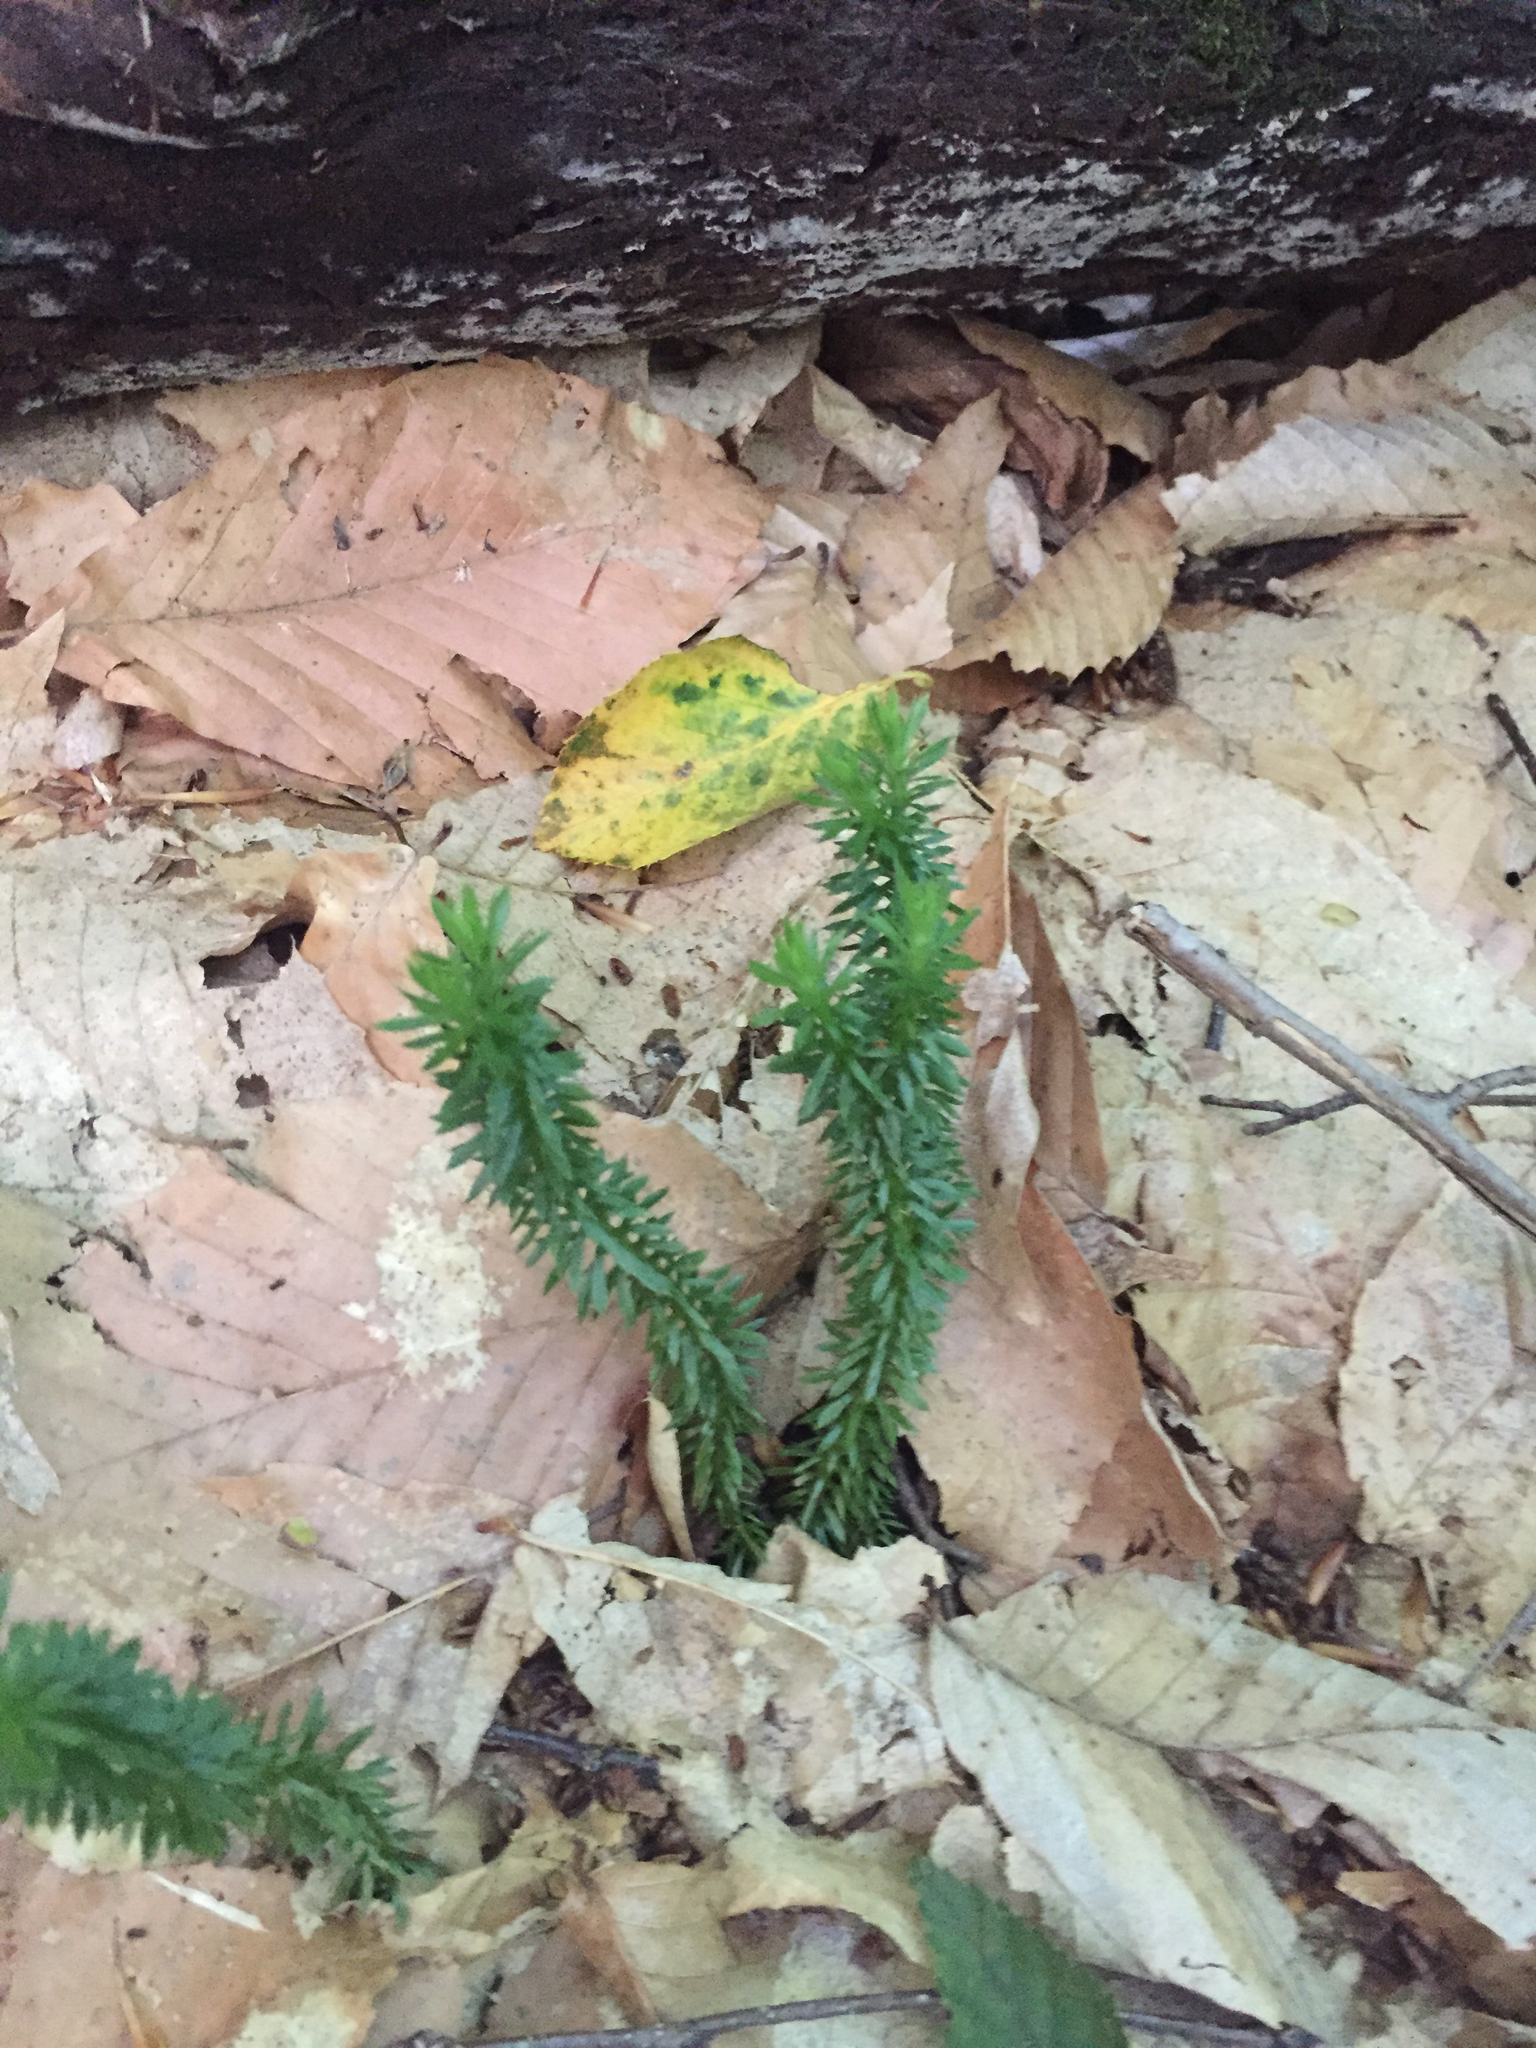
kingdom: Plantae
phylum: Tracheophyta
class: Lycopodiopsida
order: Lycopodiales
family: Lycopodiaceae
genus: Huperzia
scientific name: Huperzia lucidula
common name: Shining clubmoss
